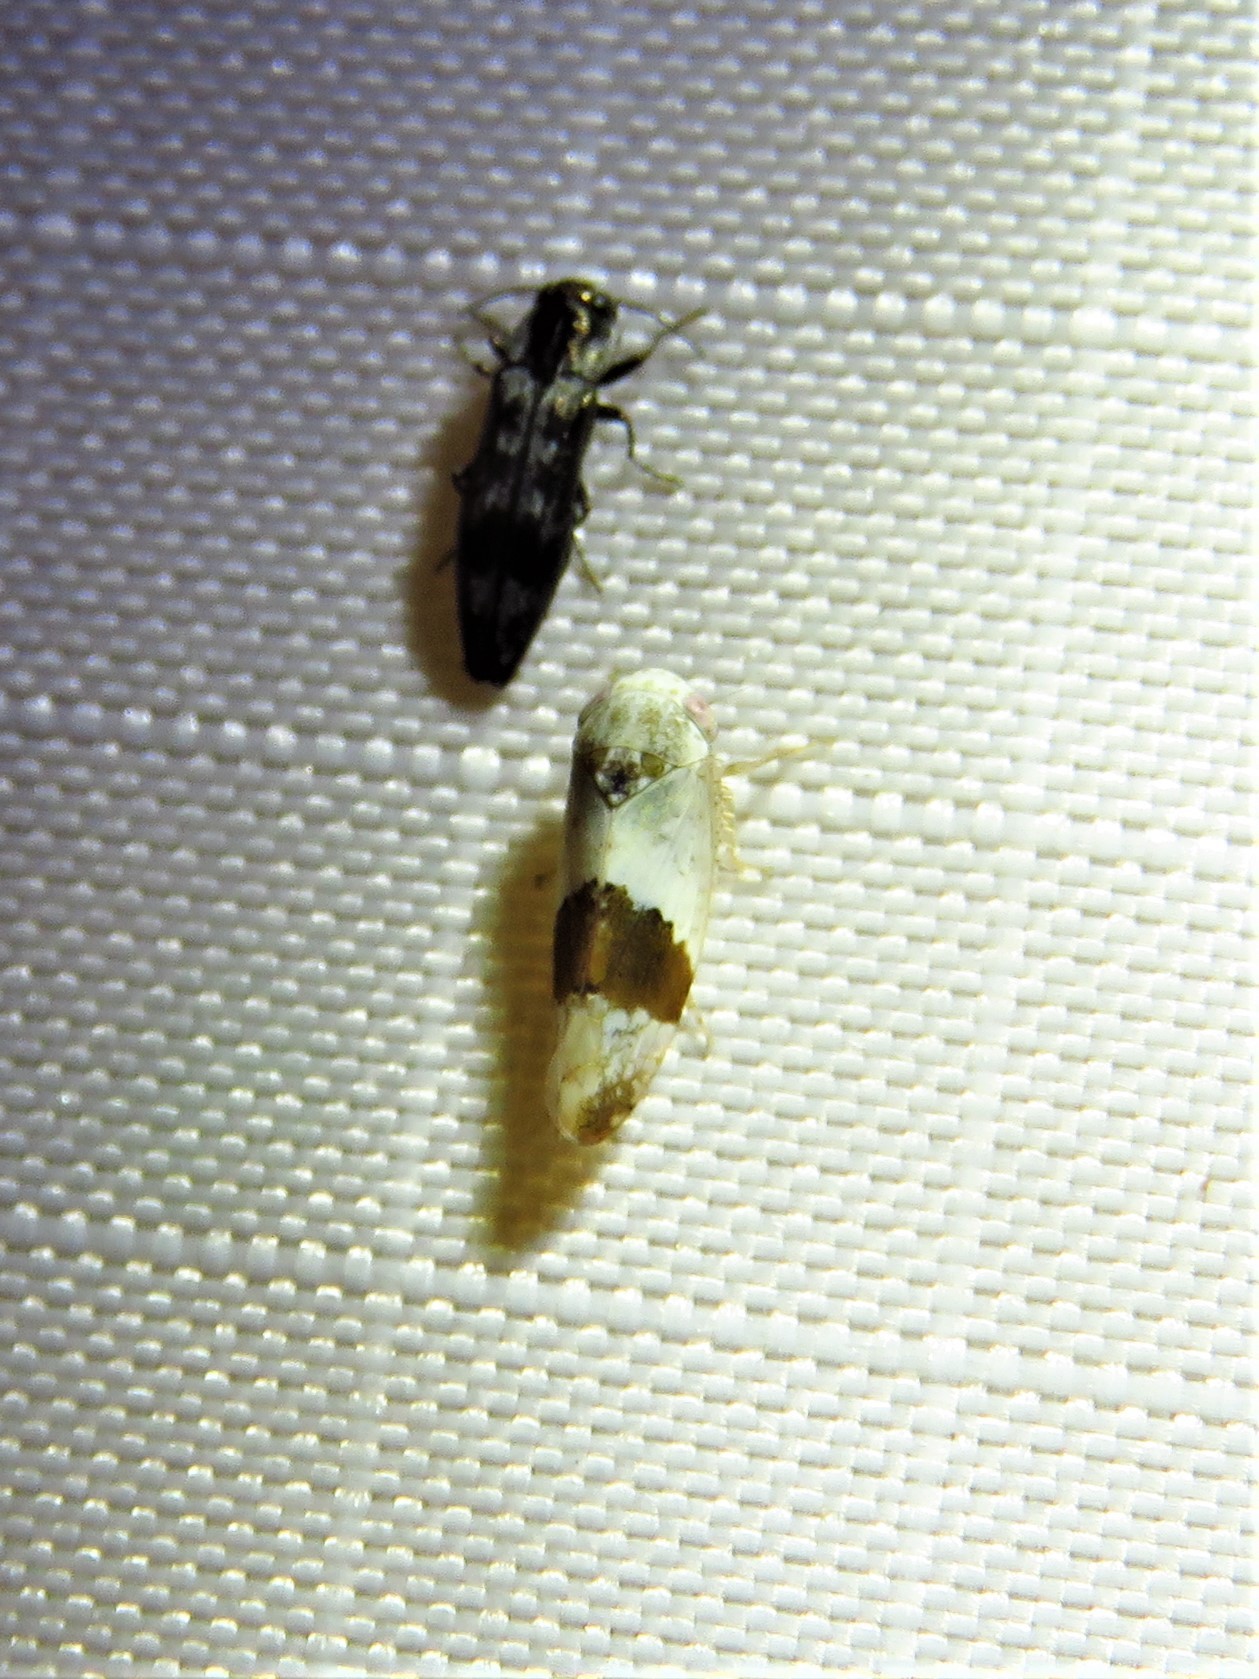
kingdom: Animalia
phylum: Arthropoda
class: Insecta
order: Hemiptera
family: Cicadellidae
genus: Norvellina
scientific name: Norvellina seminuda
